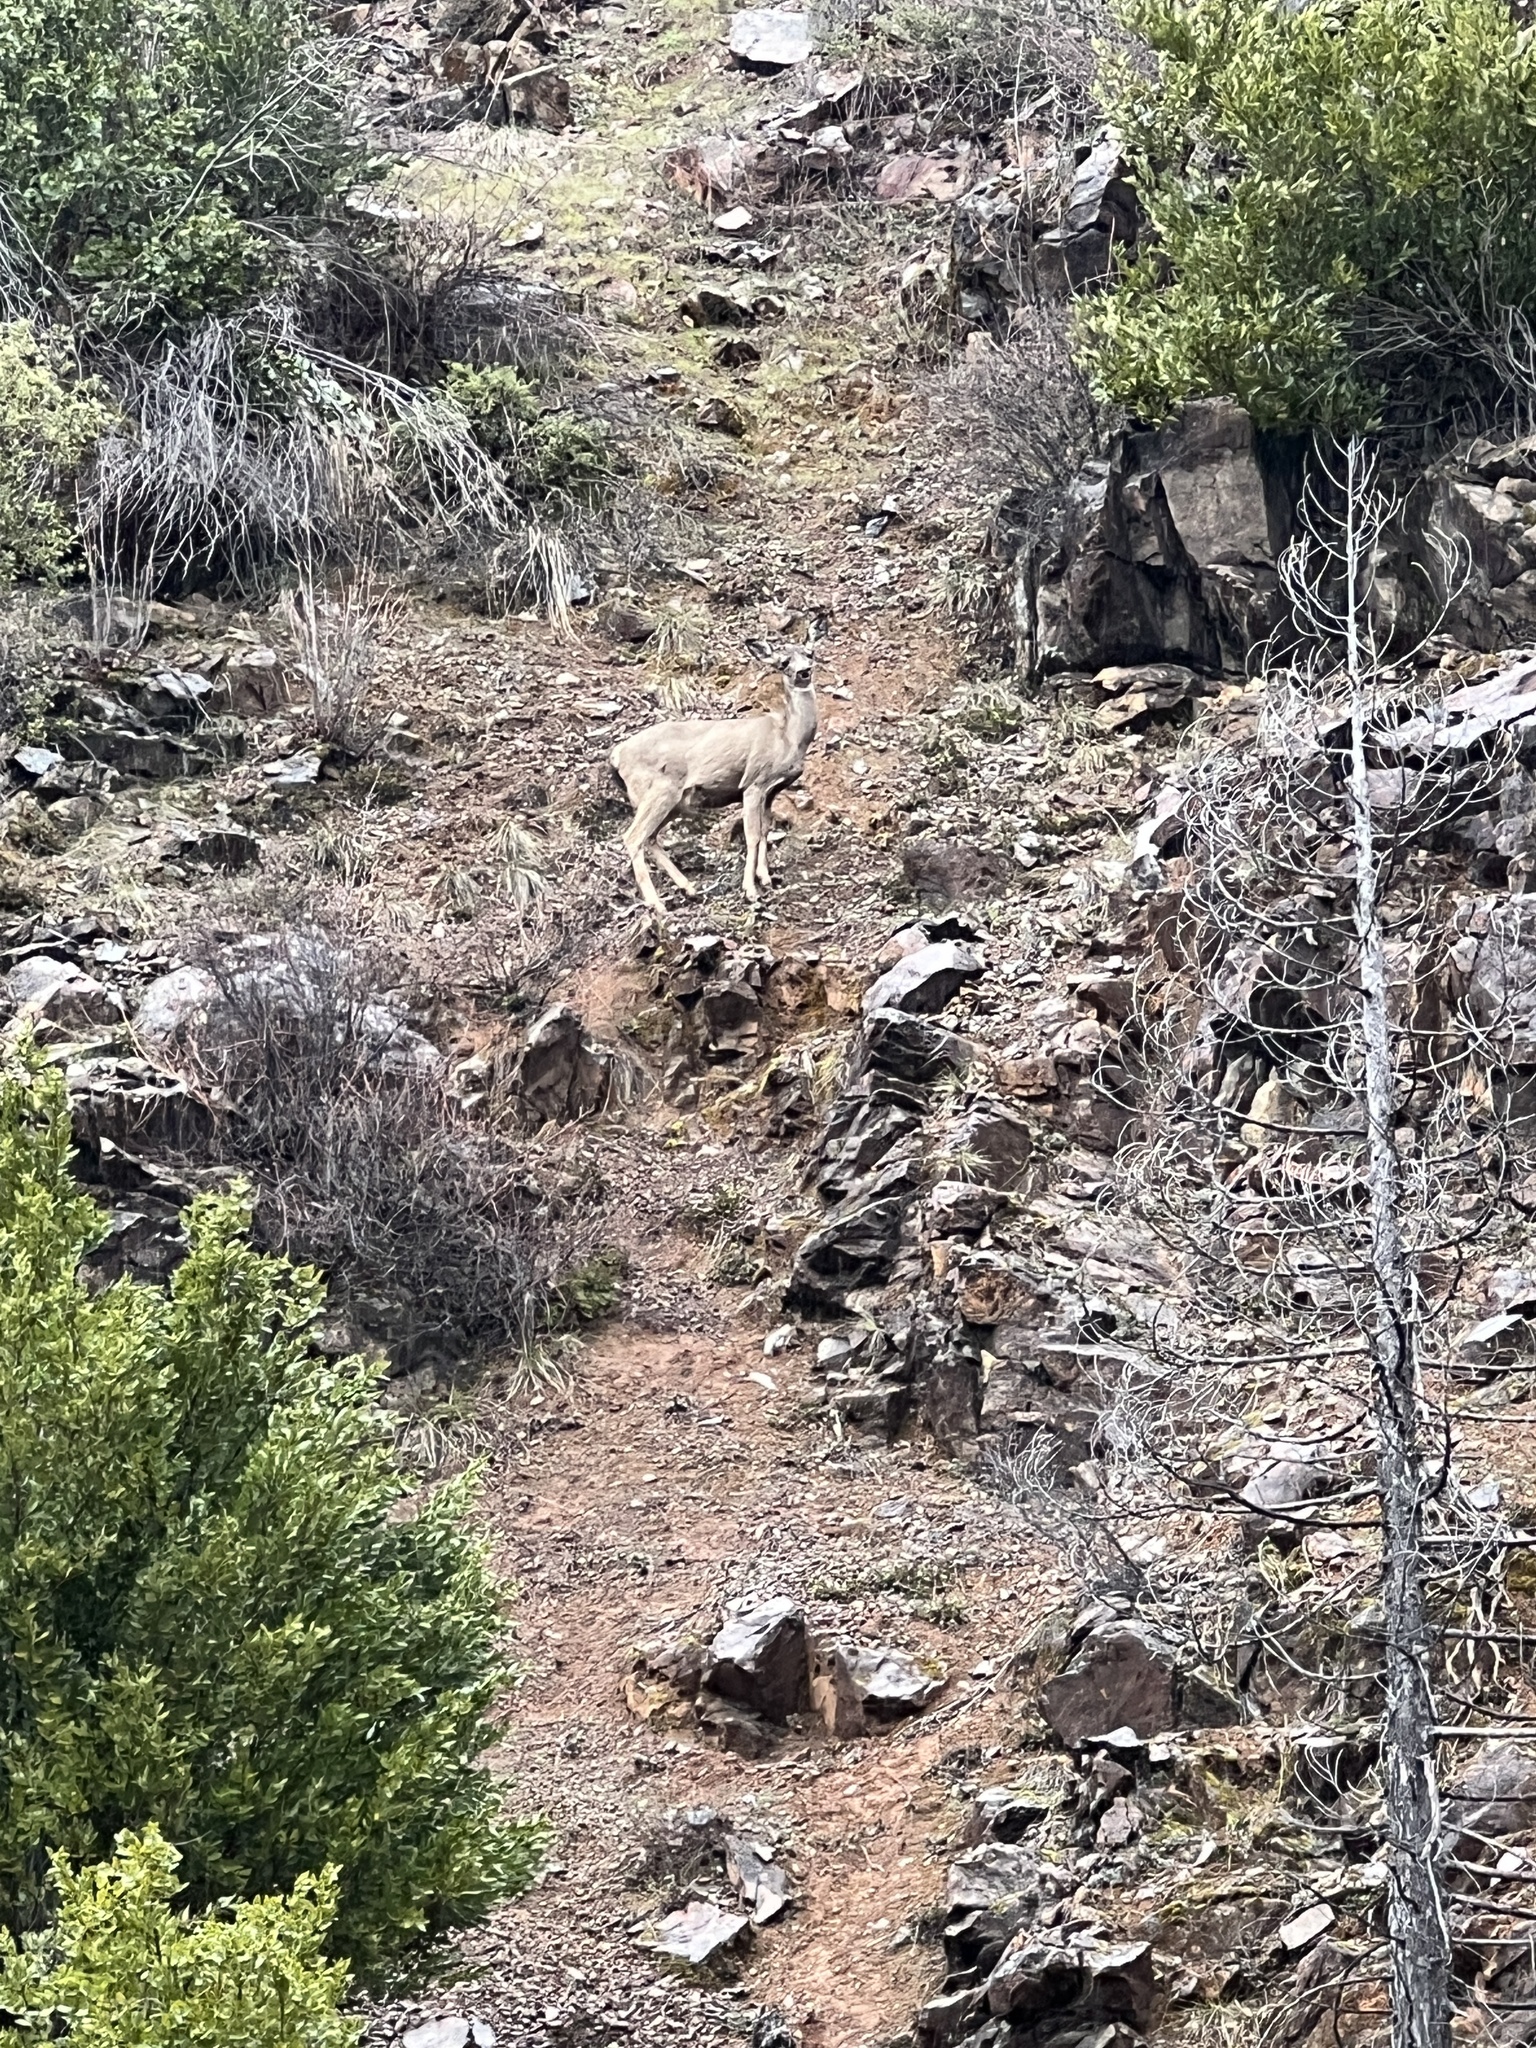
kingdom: Animalia
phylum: Chordata
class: Mammalia
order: Artiodactyla
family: Cervidae
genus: Odocoileus
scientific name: Odocoileus hemionus
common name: Mule deer
